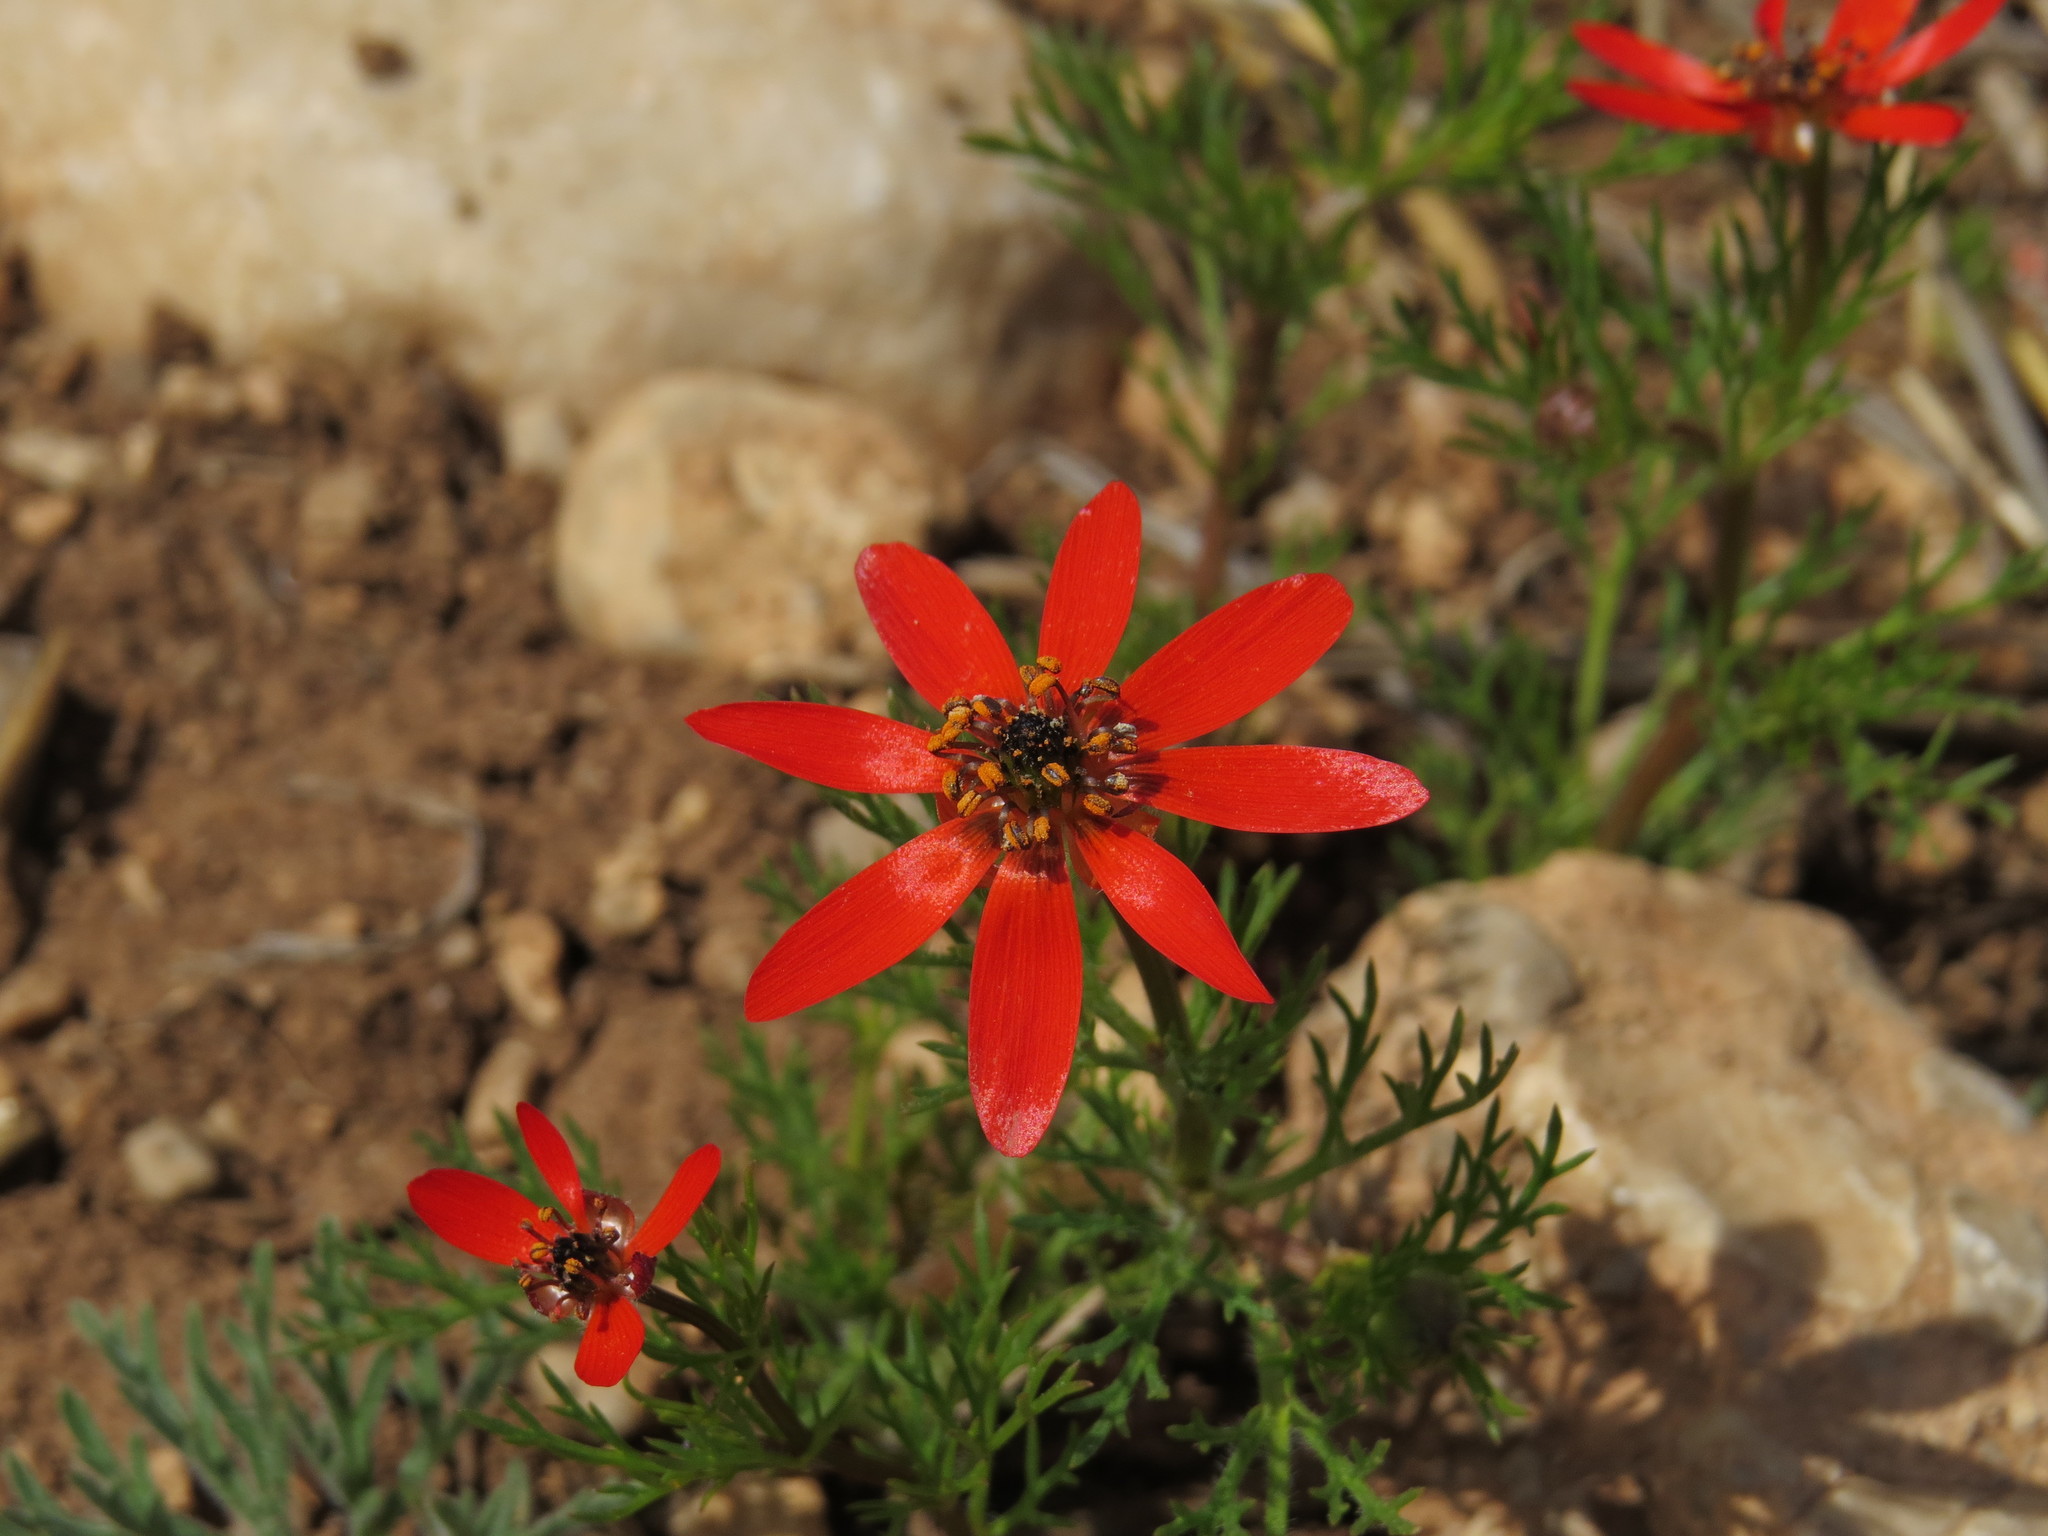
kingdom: Plantae
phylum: Tracheophyta
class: Magnoliopsida
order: Ranunculales
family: Ranunculaceae
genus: Adonis
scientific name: Adonis aestivalis
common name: Summer pheasant's-eye
